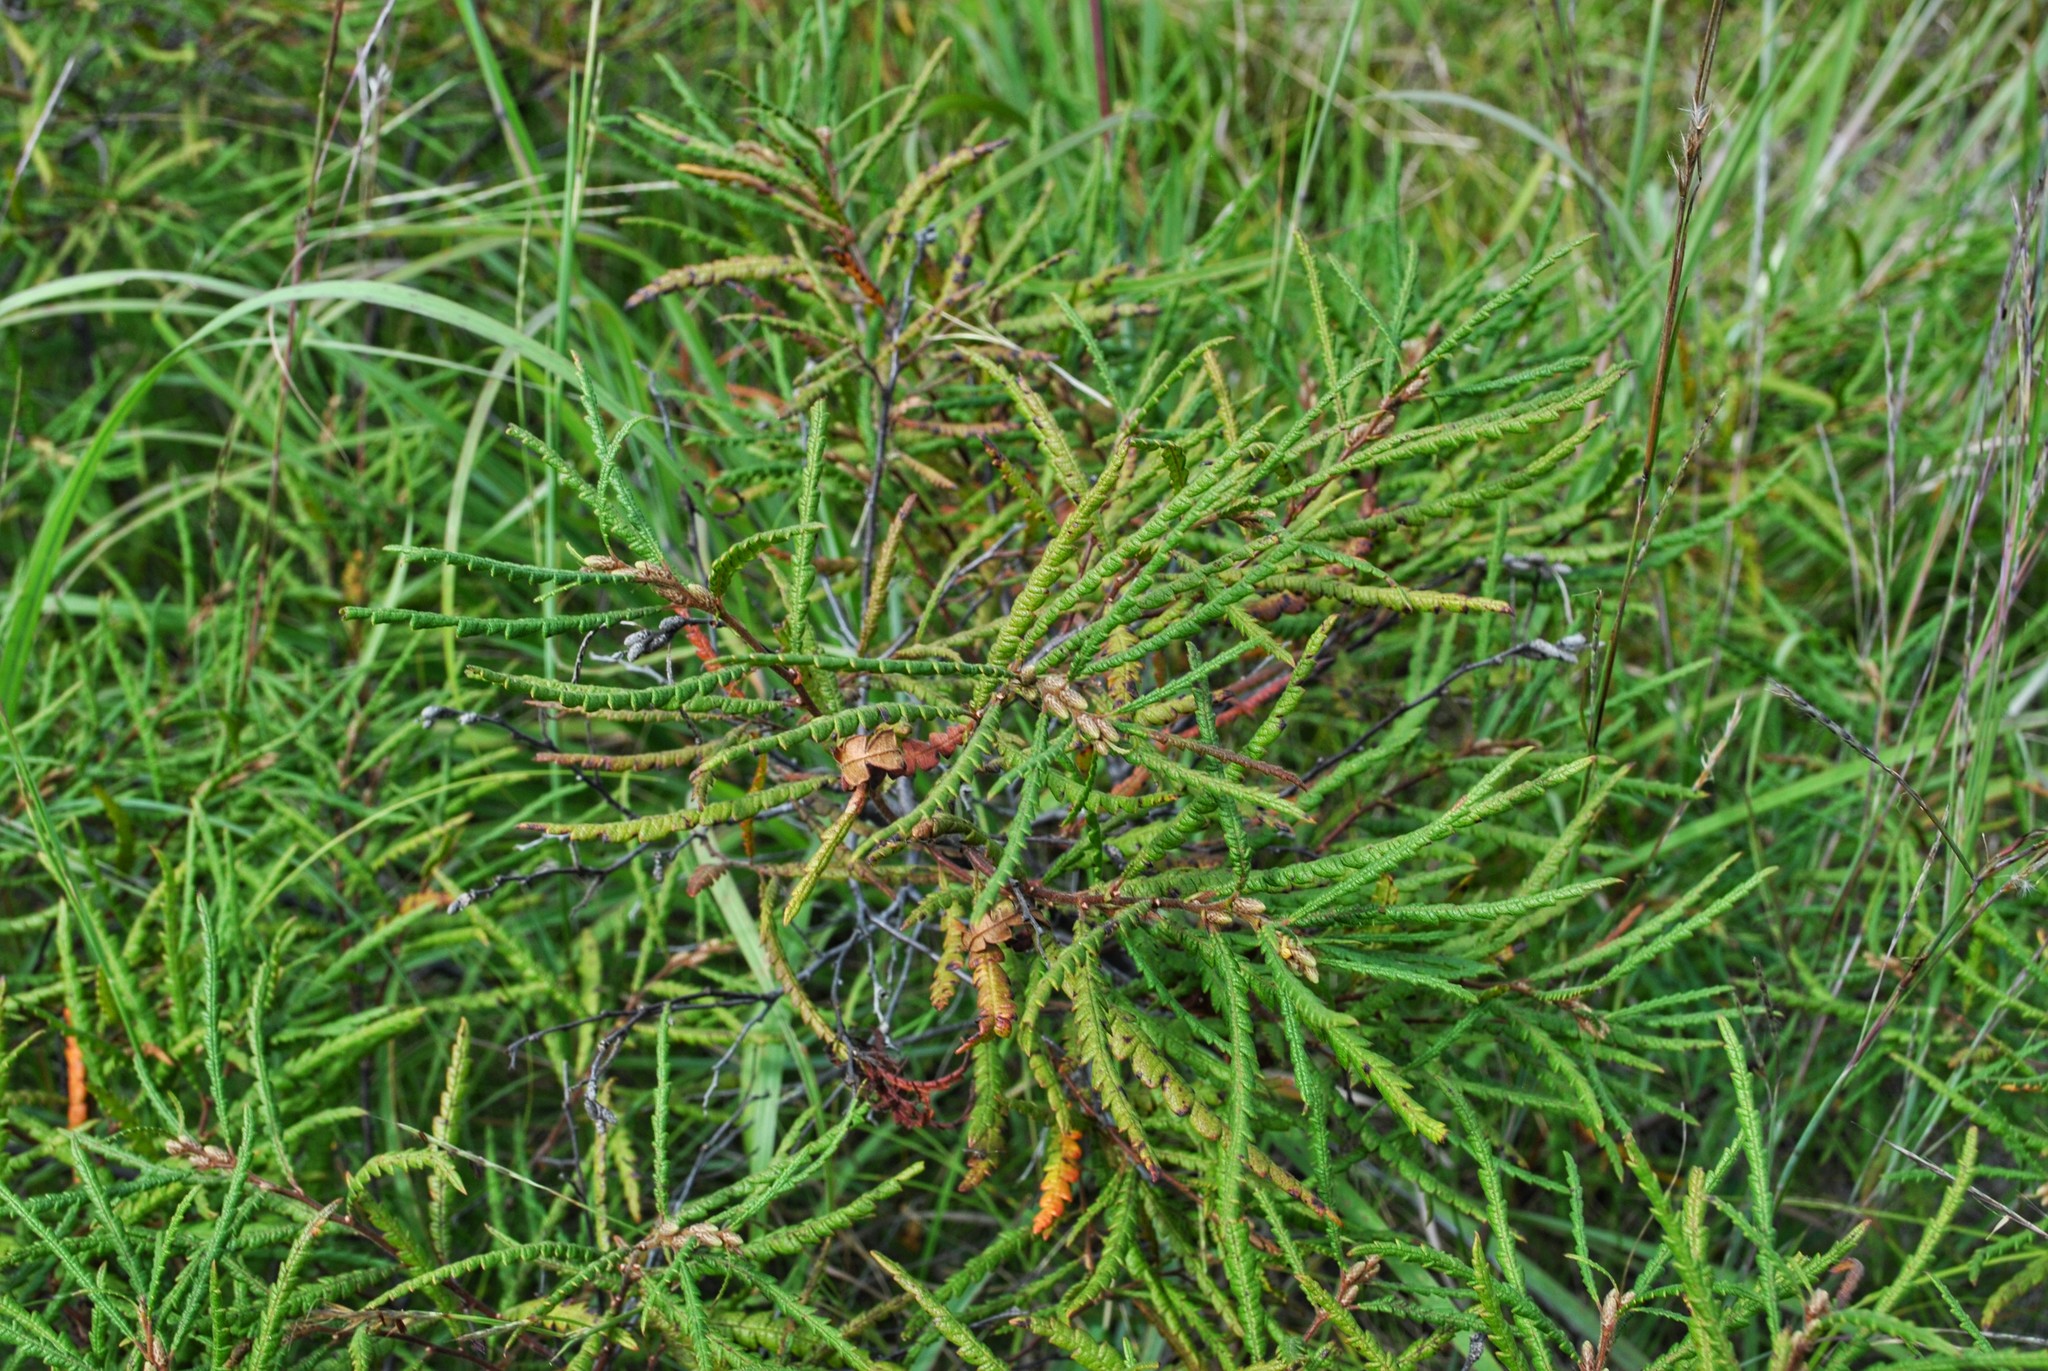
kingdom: Plantae
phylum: Tracheophyta
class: Magnoliopsida
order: Fagales
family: Myricaceae
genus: Comptonia
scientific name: Comptonia peregrina
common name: Sweet-fern
